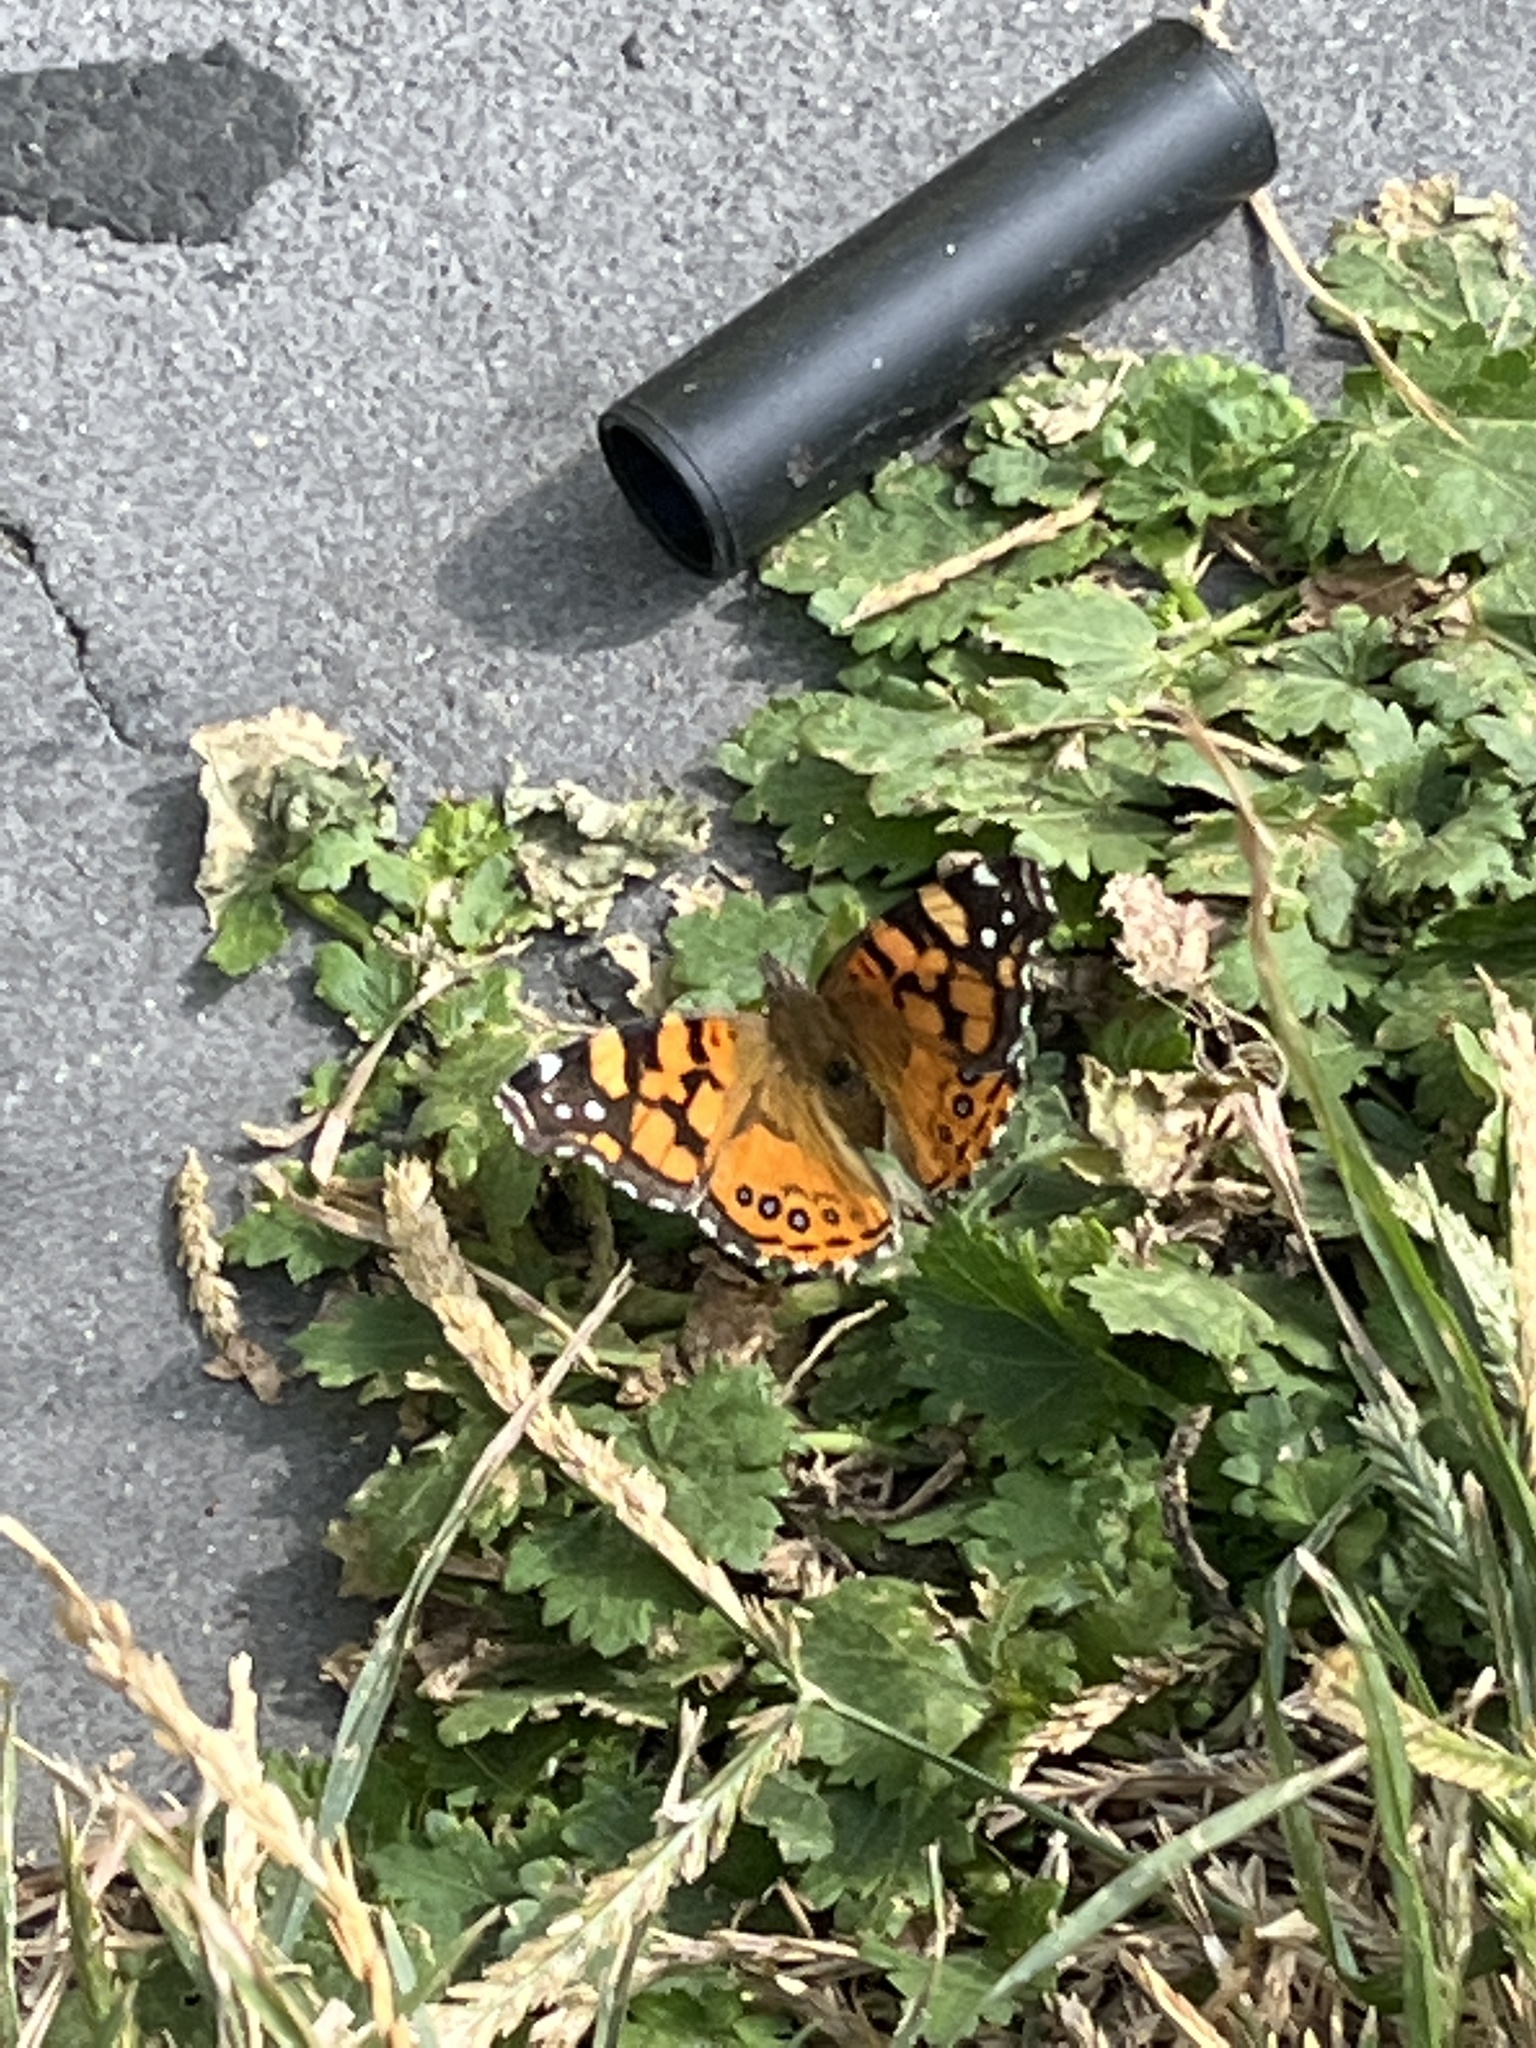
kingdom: Animalia
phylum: Arthropoda
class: Insecta
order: Lepidoptera
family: Nymphalidae
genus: Vanessa
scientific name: Vanessa annabella
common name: West coast lady
